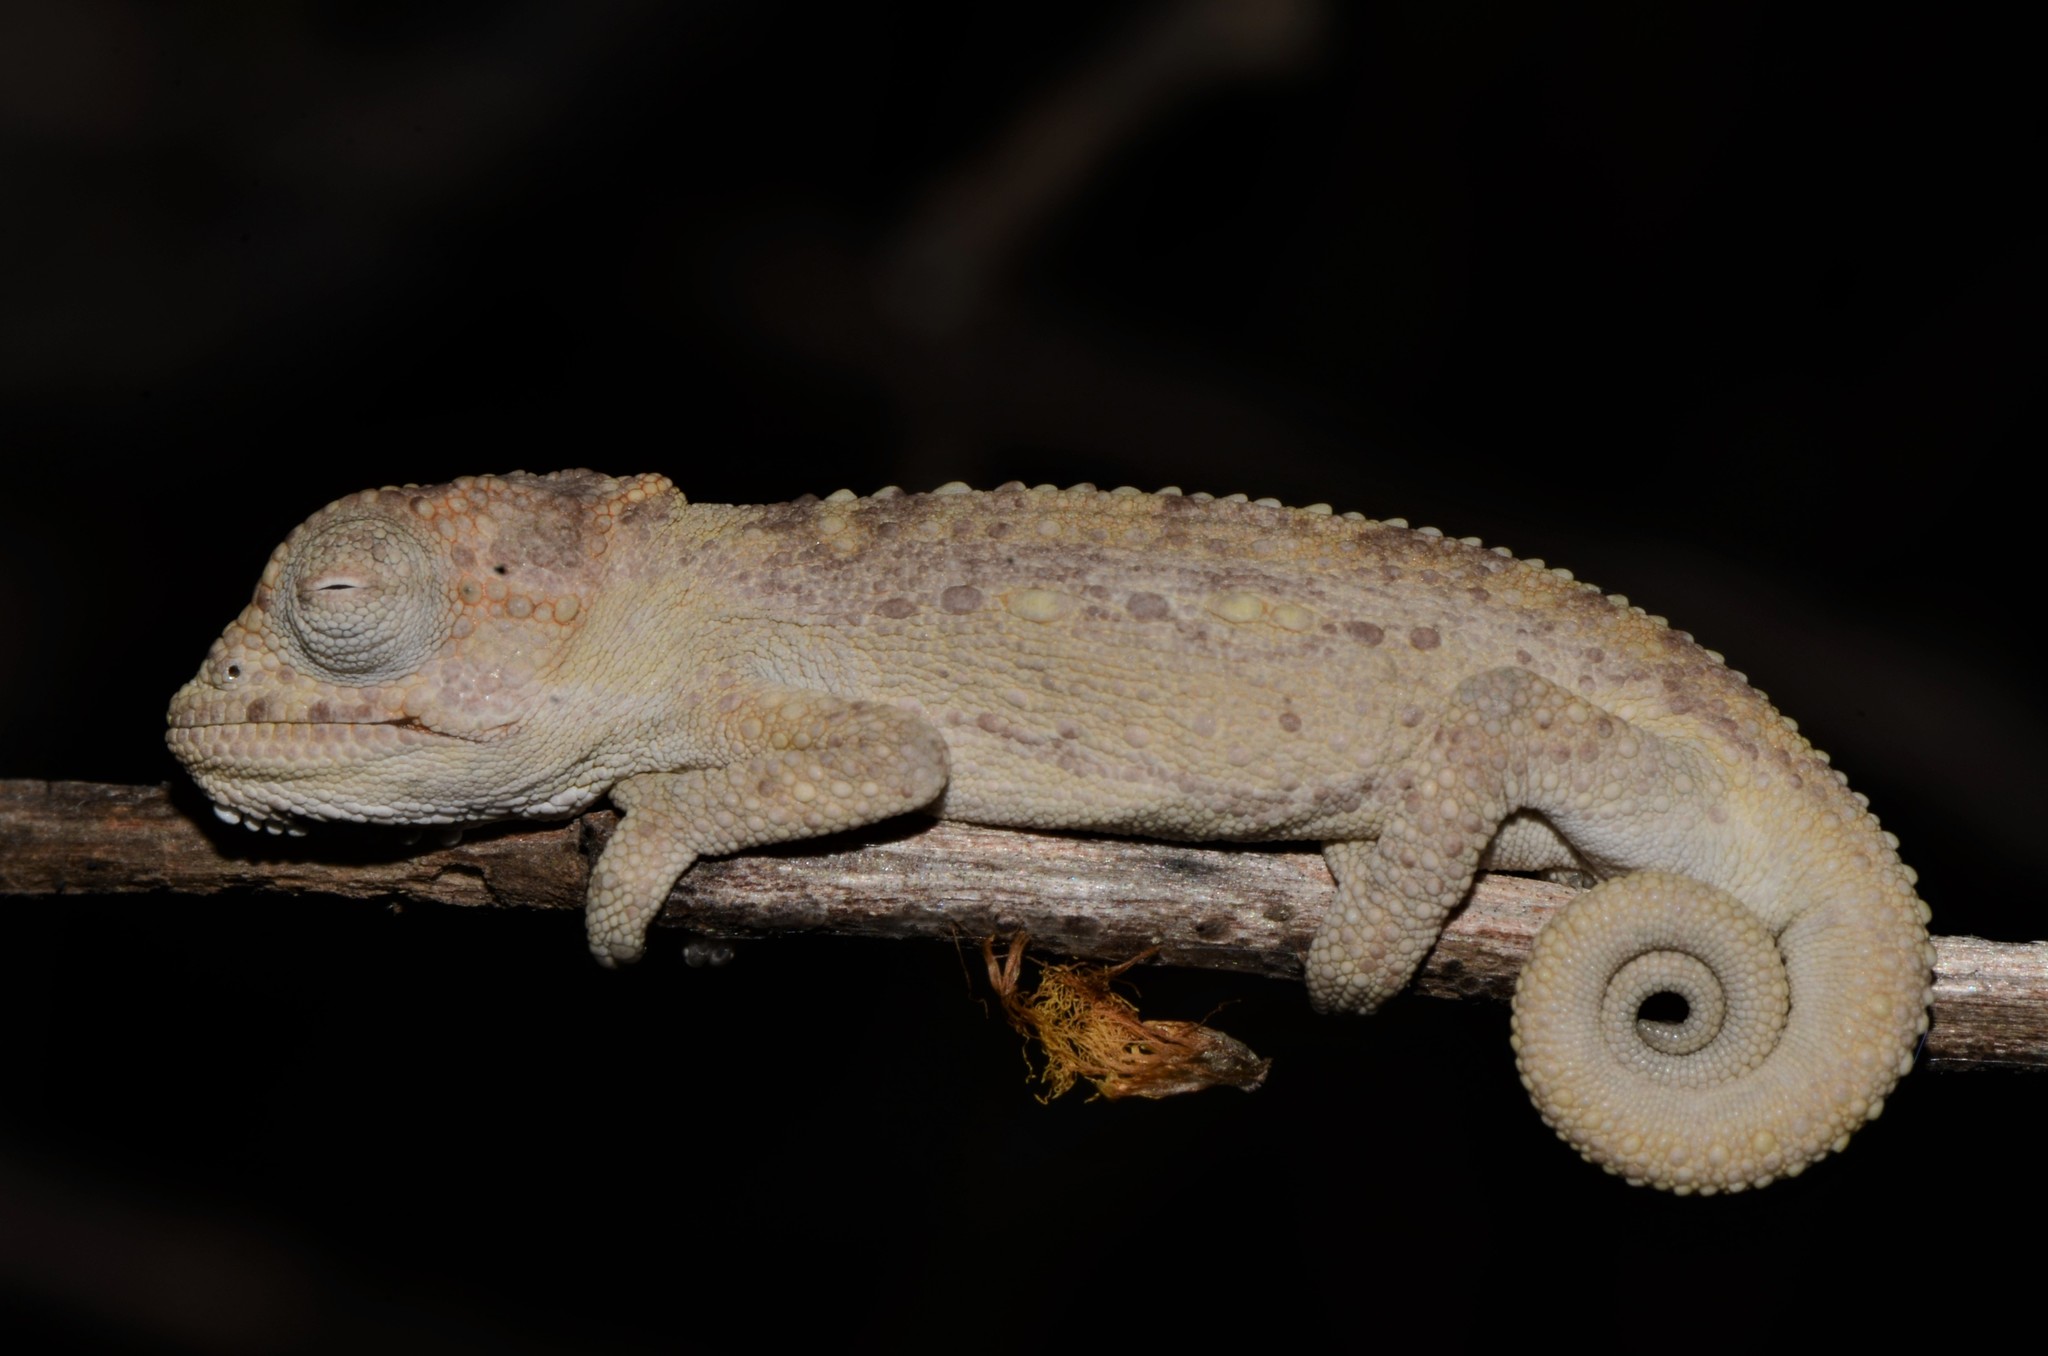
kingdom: Animalia
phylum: Chordata
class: Squamata
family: Chamaeleonidae
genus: Bradypodion
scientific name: Bradypodion pumilum
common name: Cape dwarf chameleon
